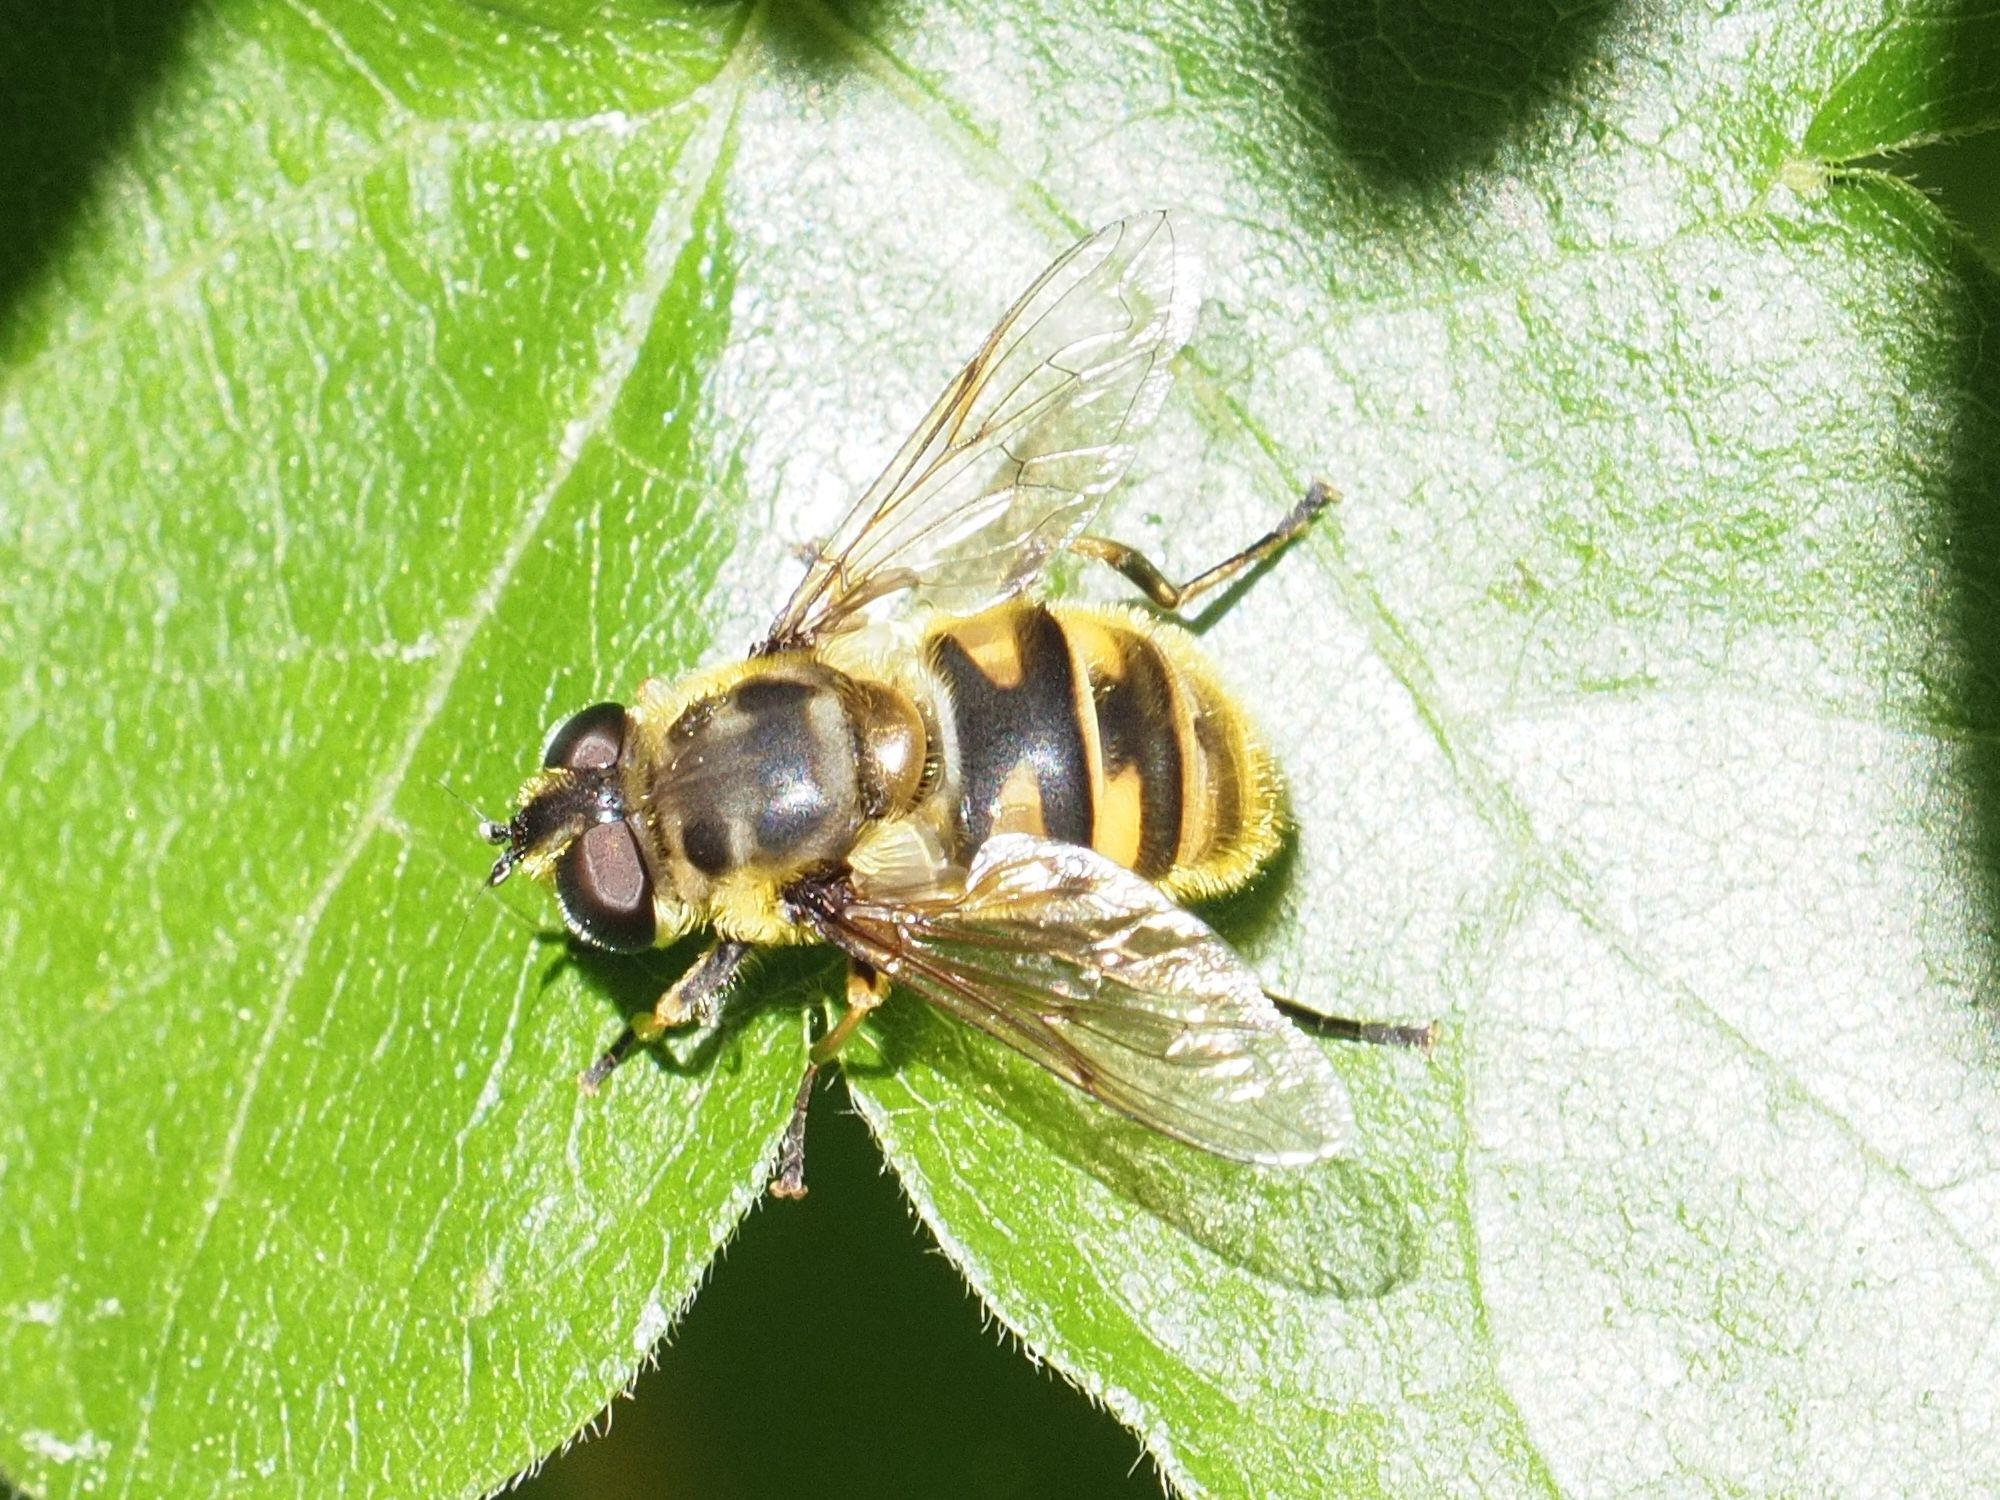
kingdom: Animalia
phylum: Arthropoda
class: Insecta
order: Diptera
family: Syrphidae
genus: Myathropa
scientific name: Myathropa florea
